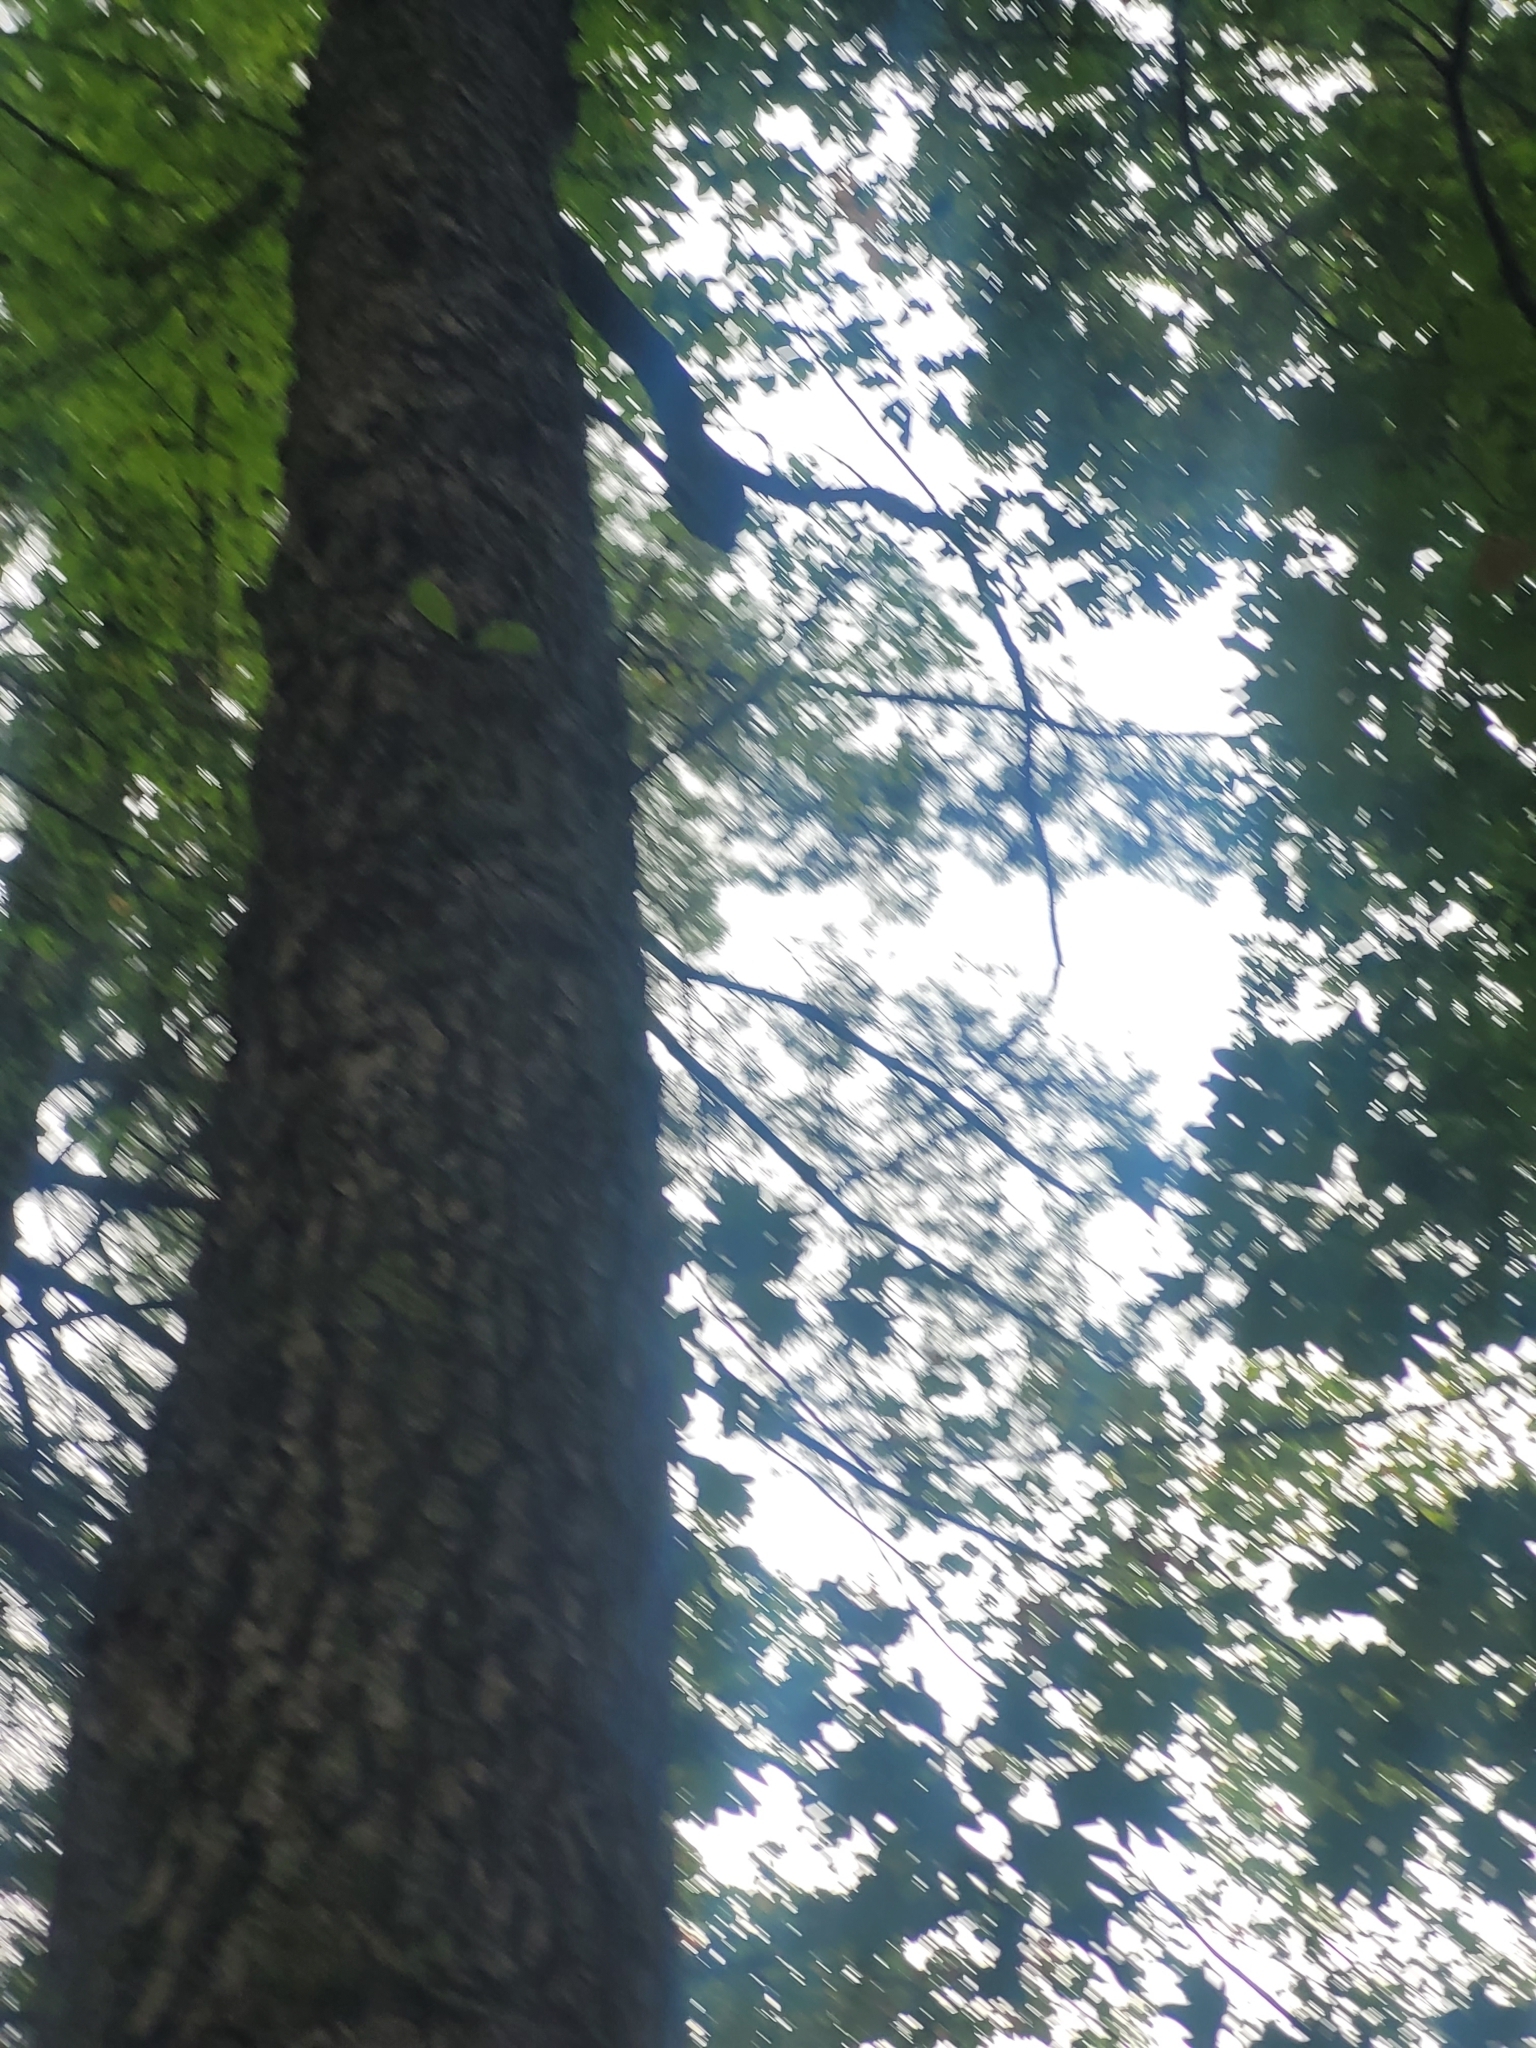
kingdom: Plantae
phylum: Tracheophyta
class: Magnoliopsida
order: Cornales
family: Nyssaceae
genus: Nyssa
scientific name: Nyssa sylvatica
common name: Black tupelo
